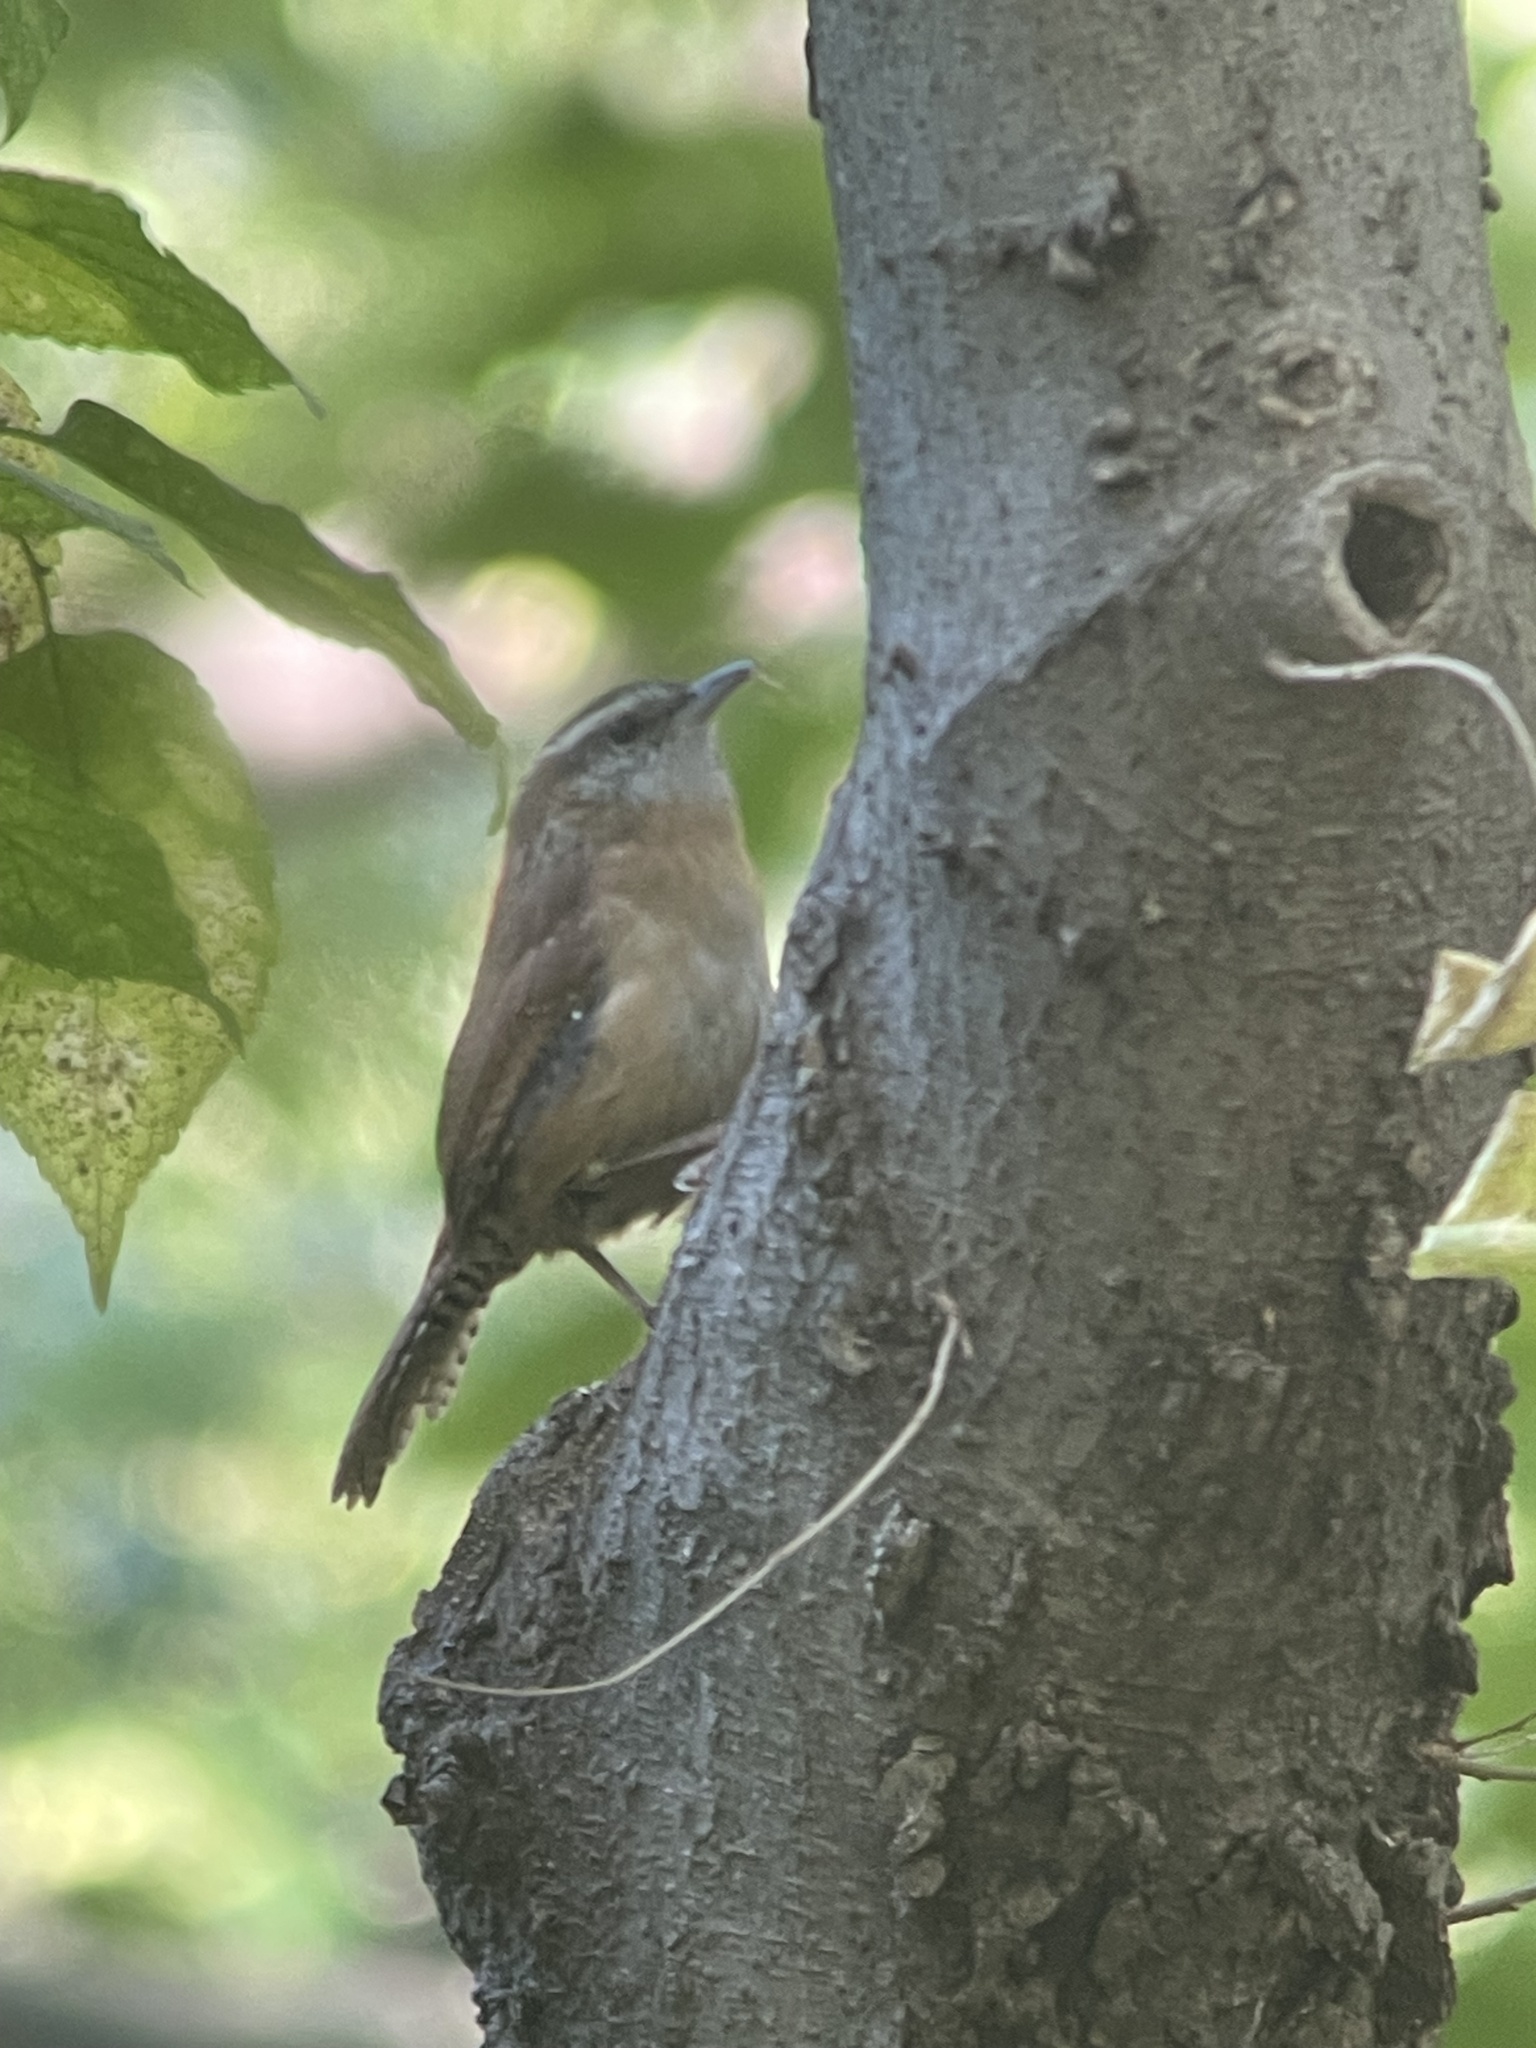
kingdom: Animalia
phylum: Chordata
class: Aves
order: Passeriformes
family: Troglodytidae
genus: Thryothorus
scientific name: Thryothorus ludovicianus
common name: Carolina wren
